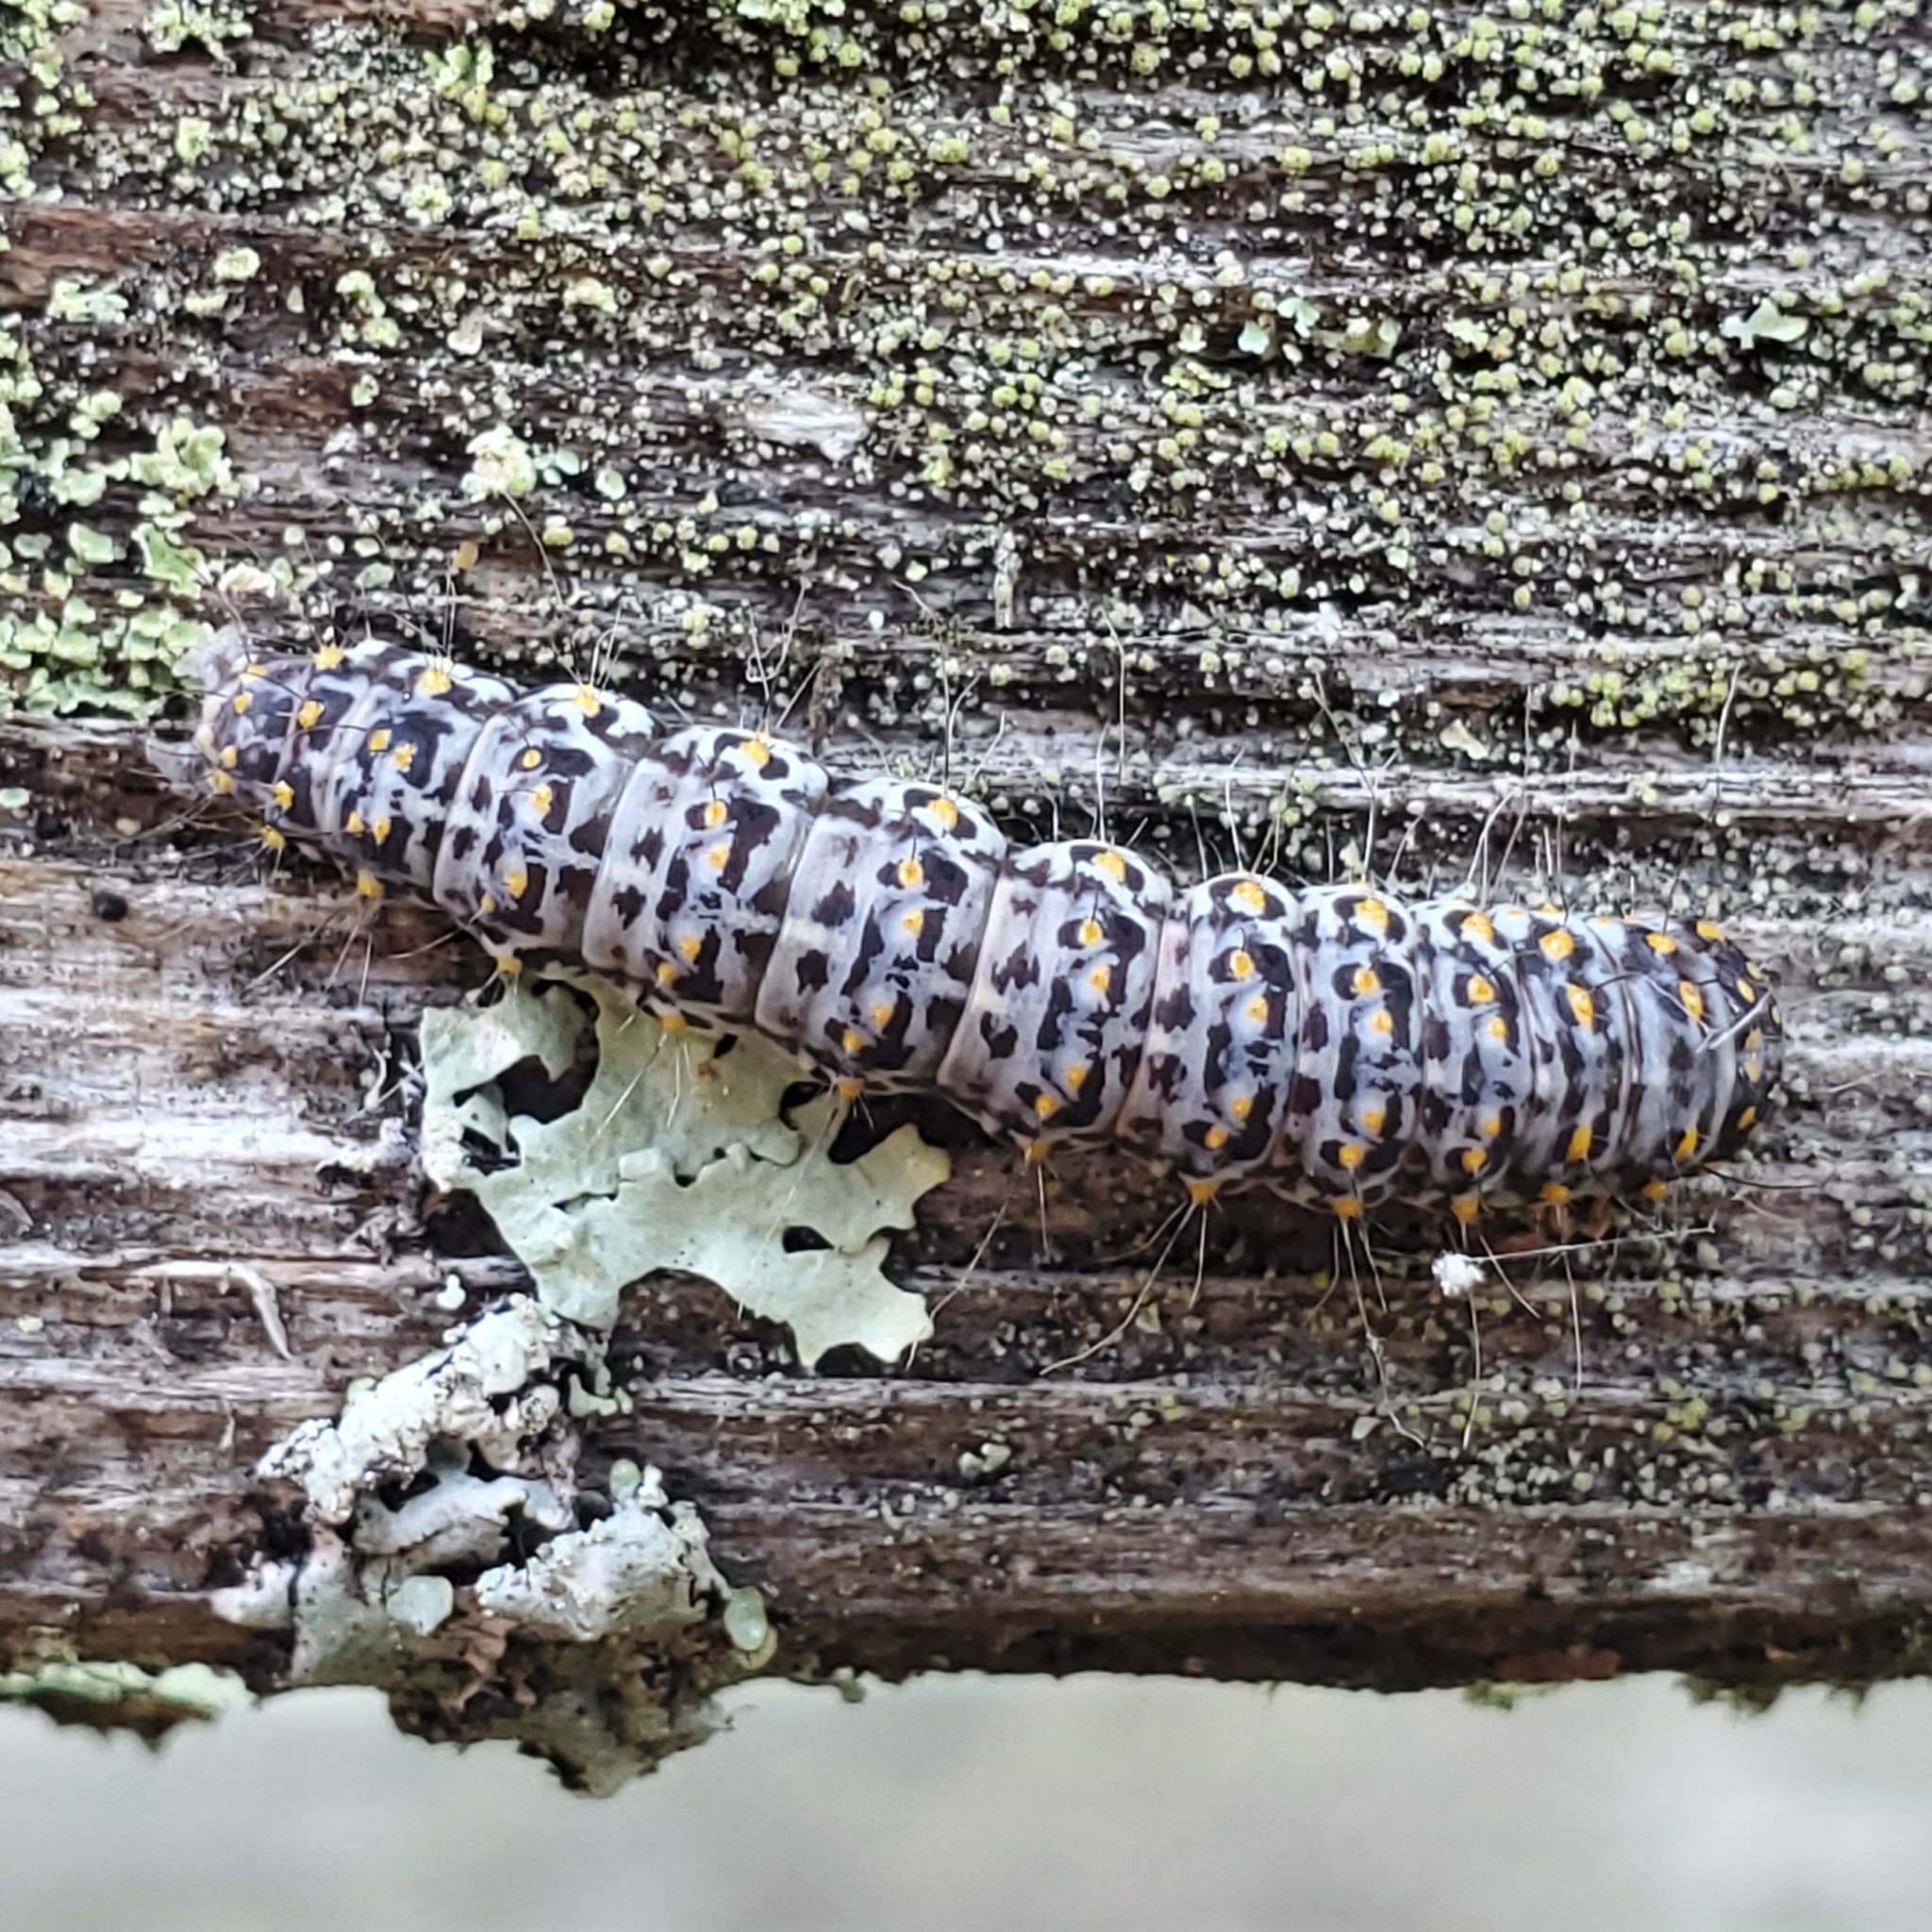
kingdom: Animalia
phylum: Arthropoda
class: Insecta
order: Lepidoptera
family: Noctuidae
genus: Polygrammate
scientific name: Polygrammate hebraeicum
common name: Hebrew moth
